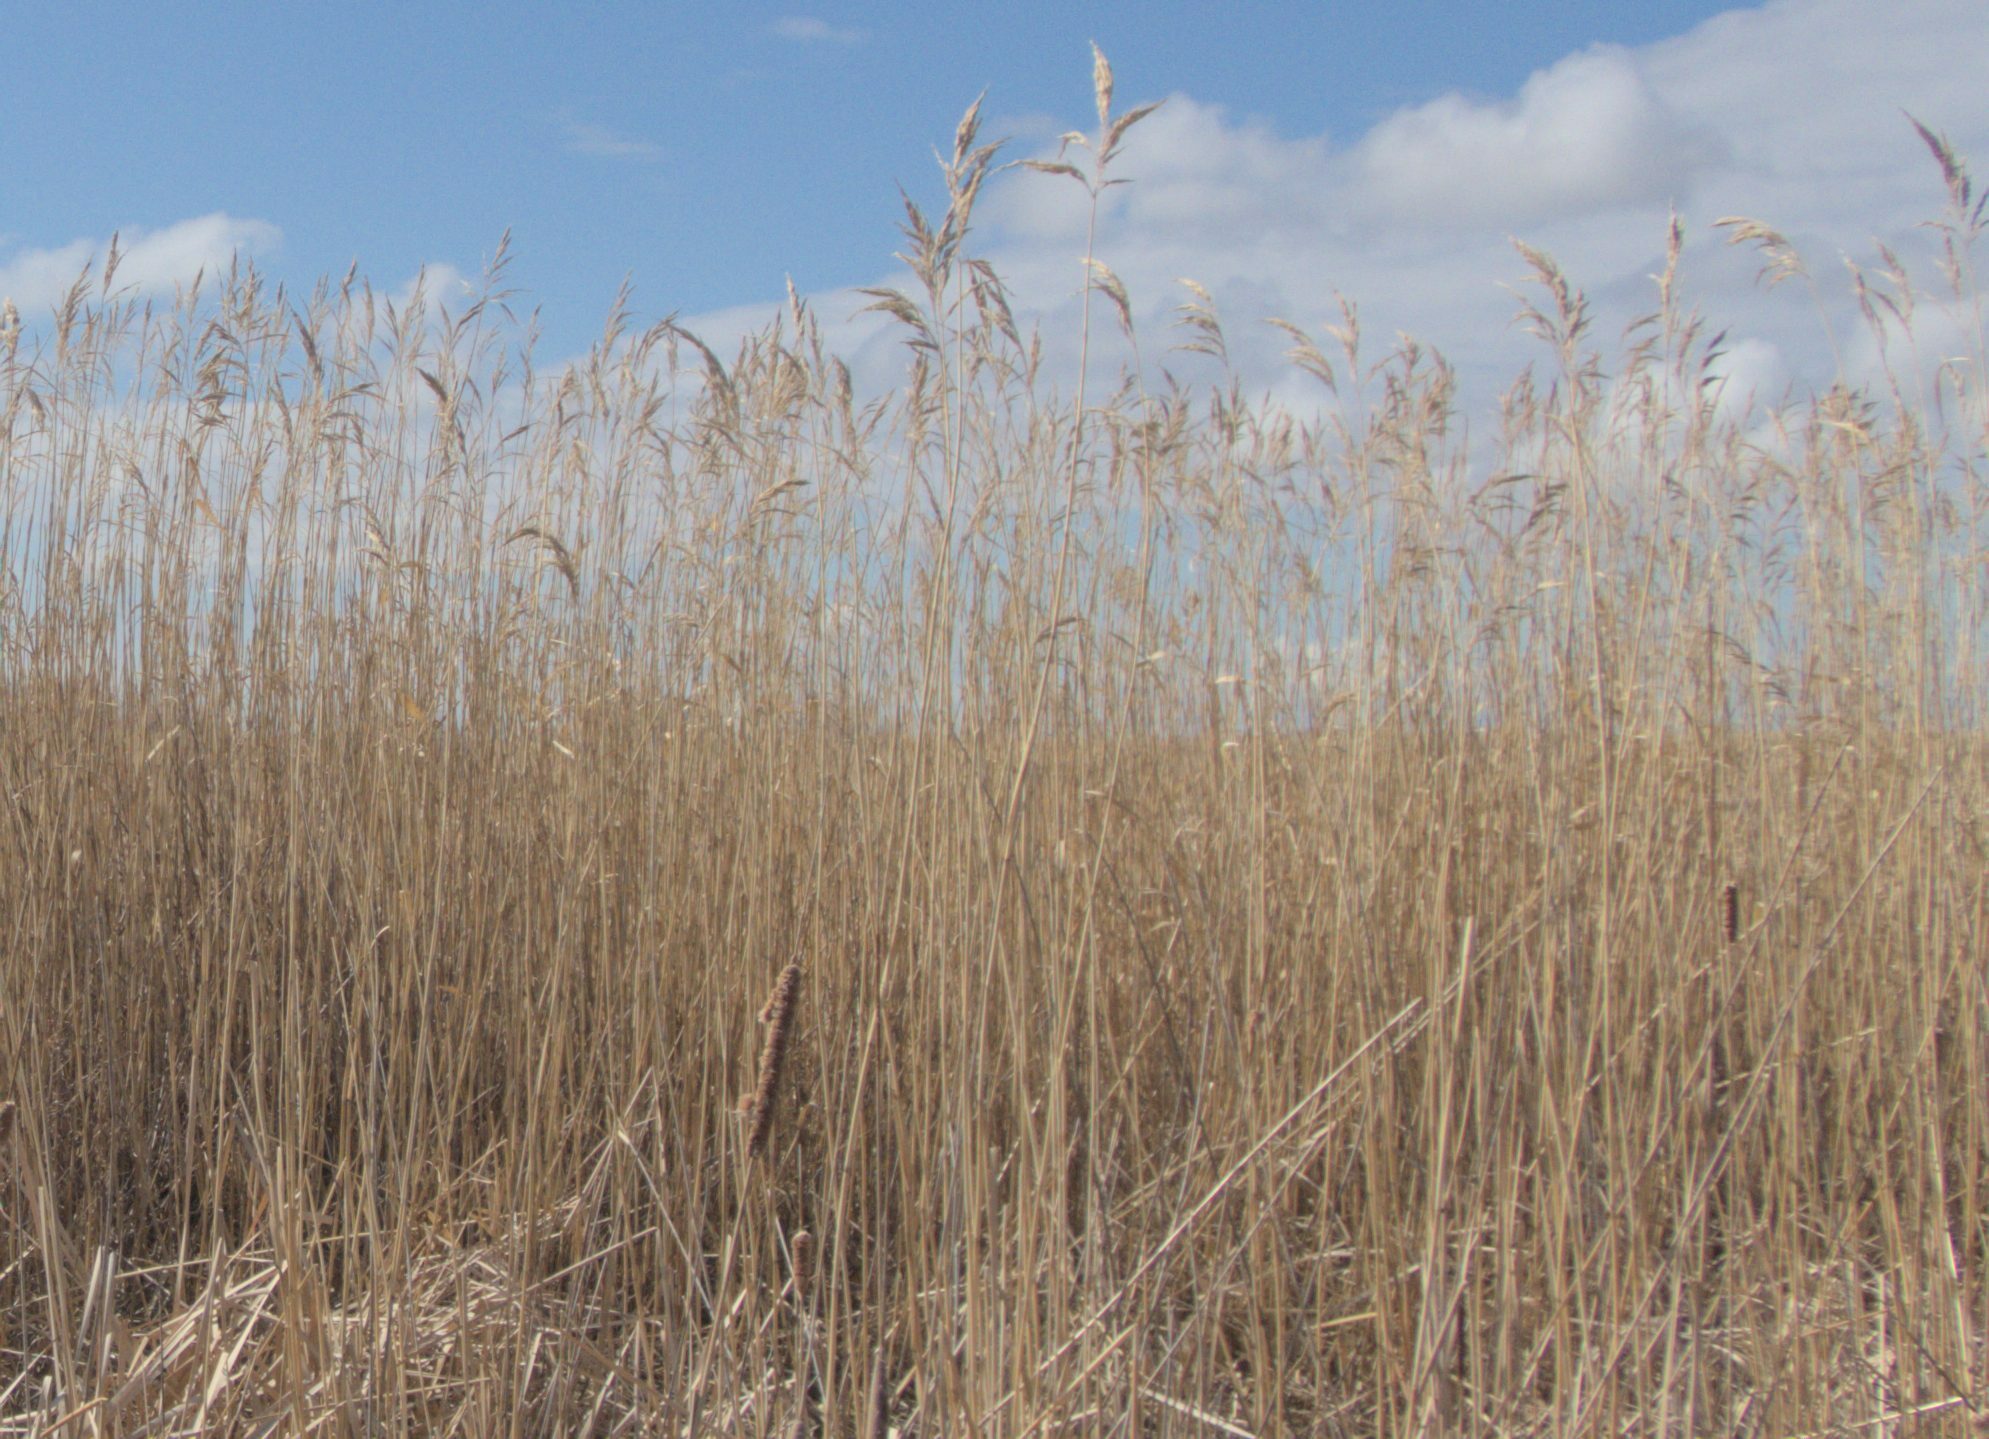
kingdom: Plantae
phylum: Tracheophyta
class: Liliopsida
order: Poales
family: Poaceae
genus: Phragmites
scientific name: Phragmites australis
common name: Common reed
